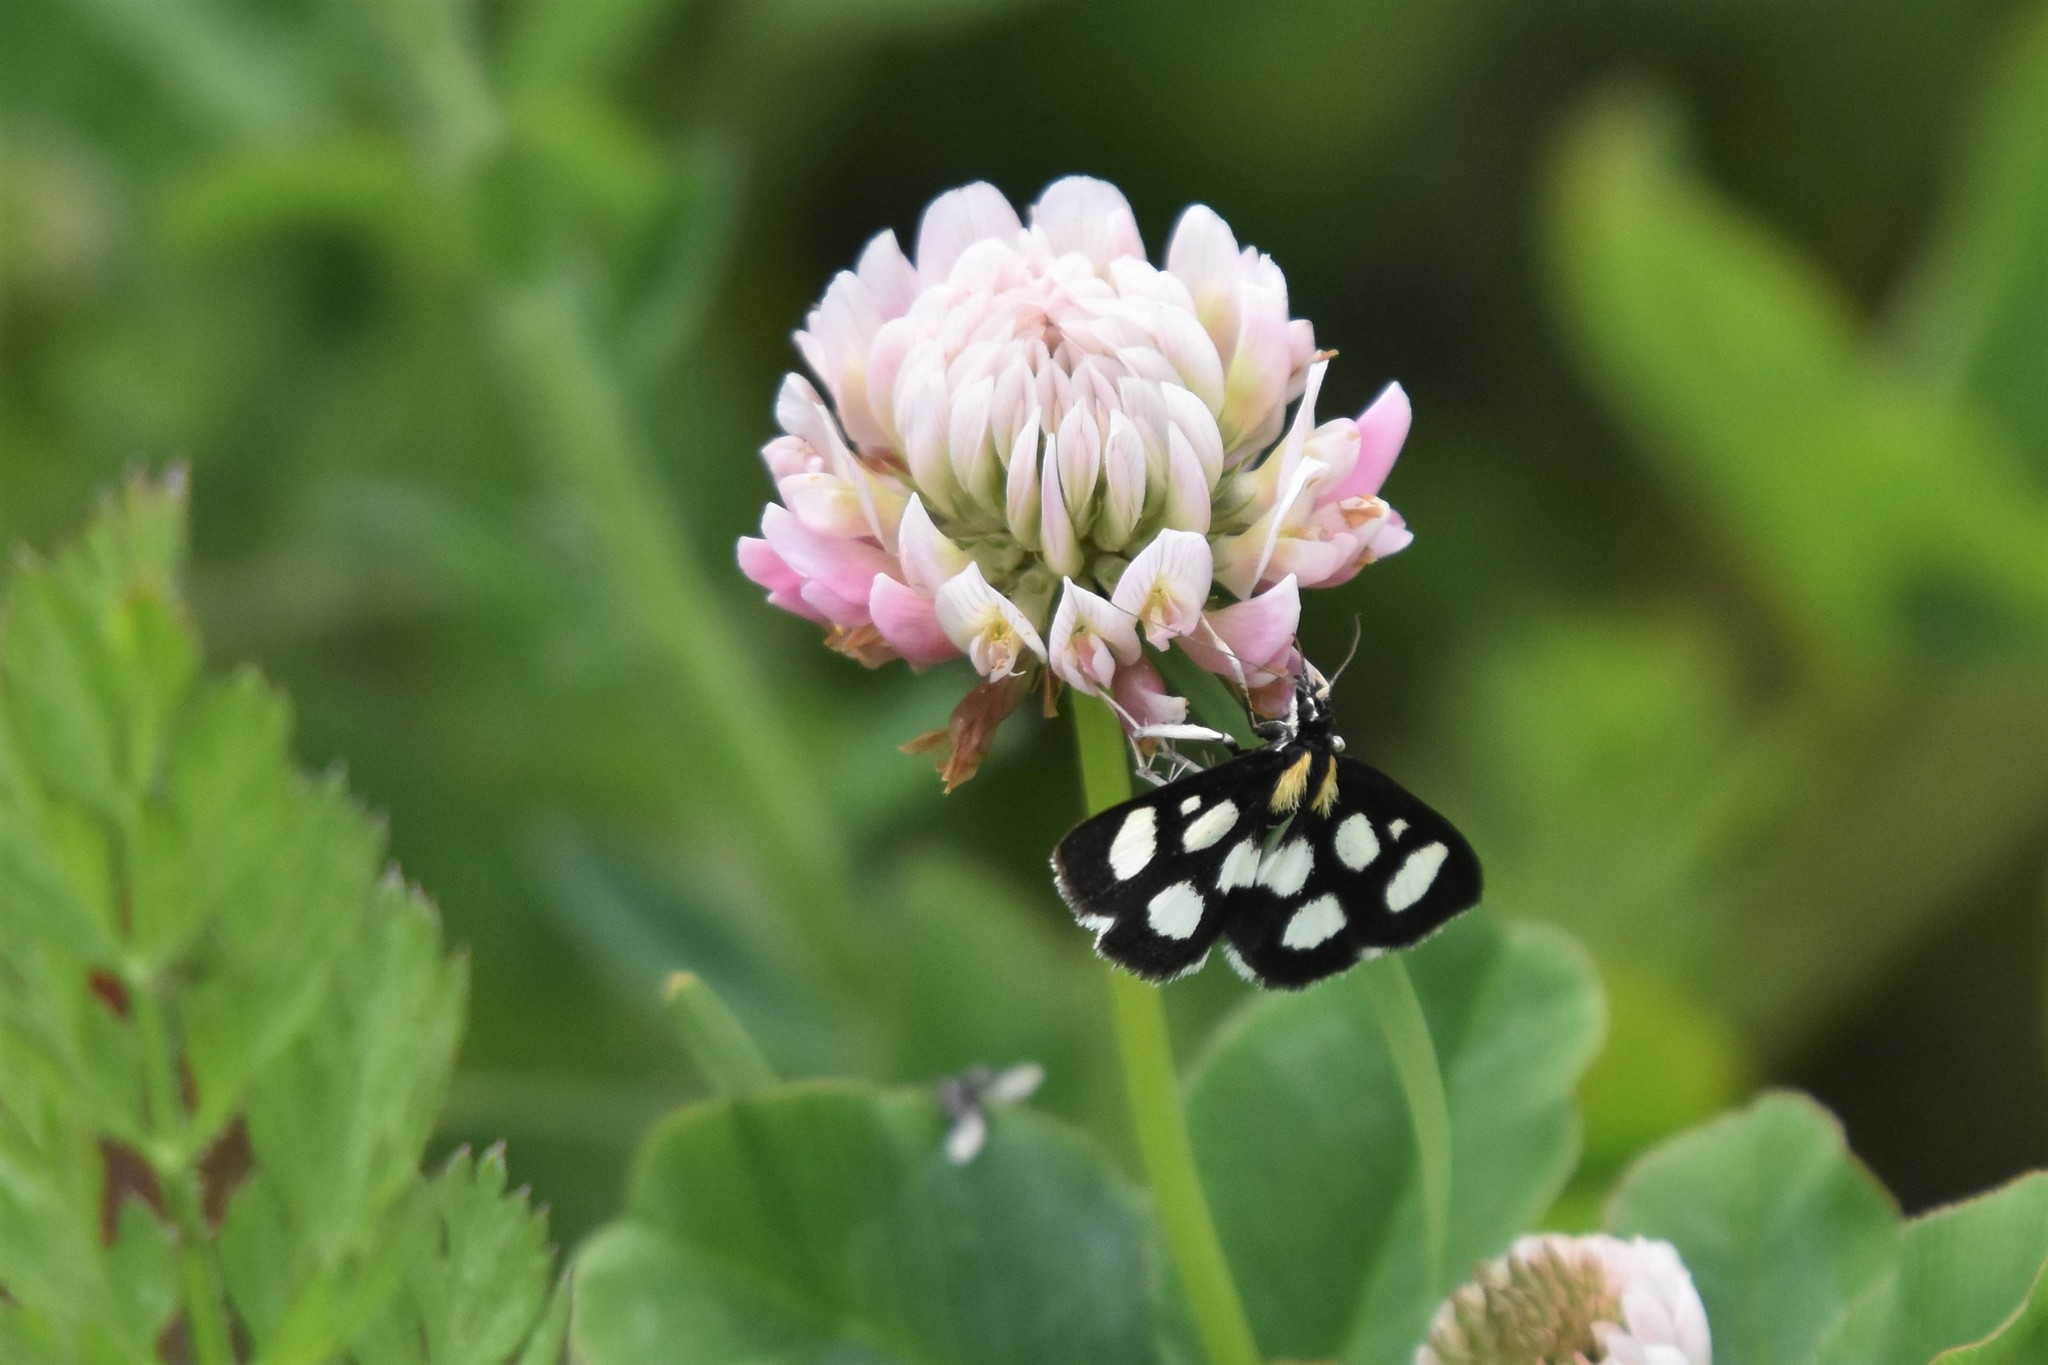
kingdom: Animalia
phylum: Arthropoda
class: Insecta
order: Lepidoptera
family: Crambidae
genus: Anania
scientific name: Anania funebris
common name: White-spotted sable moth
